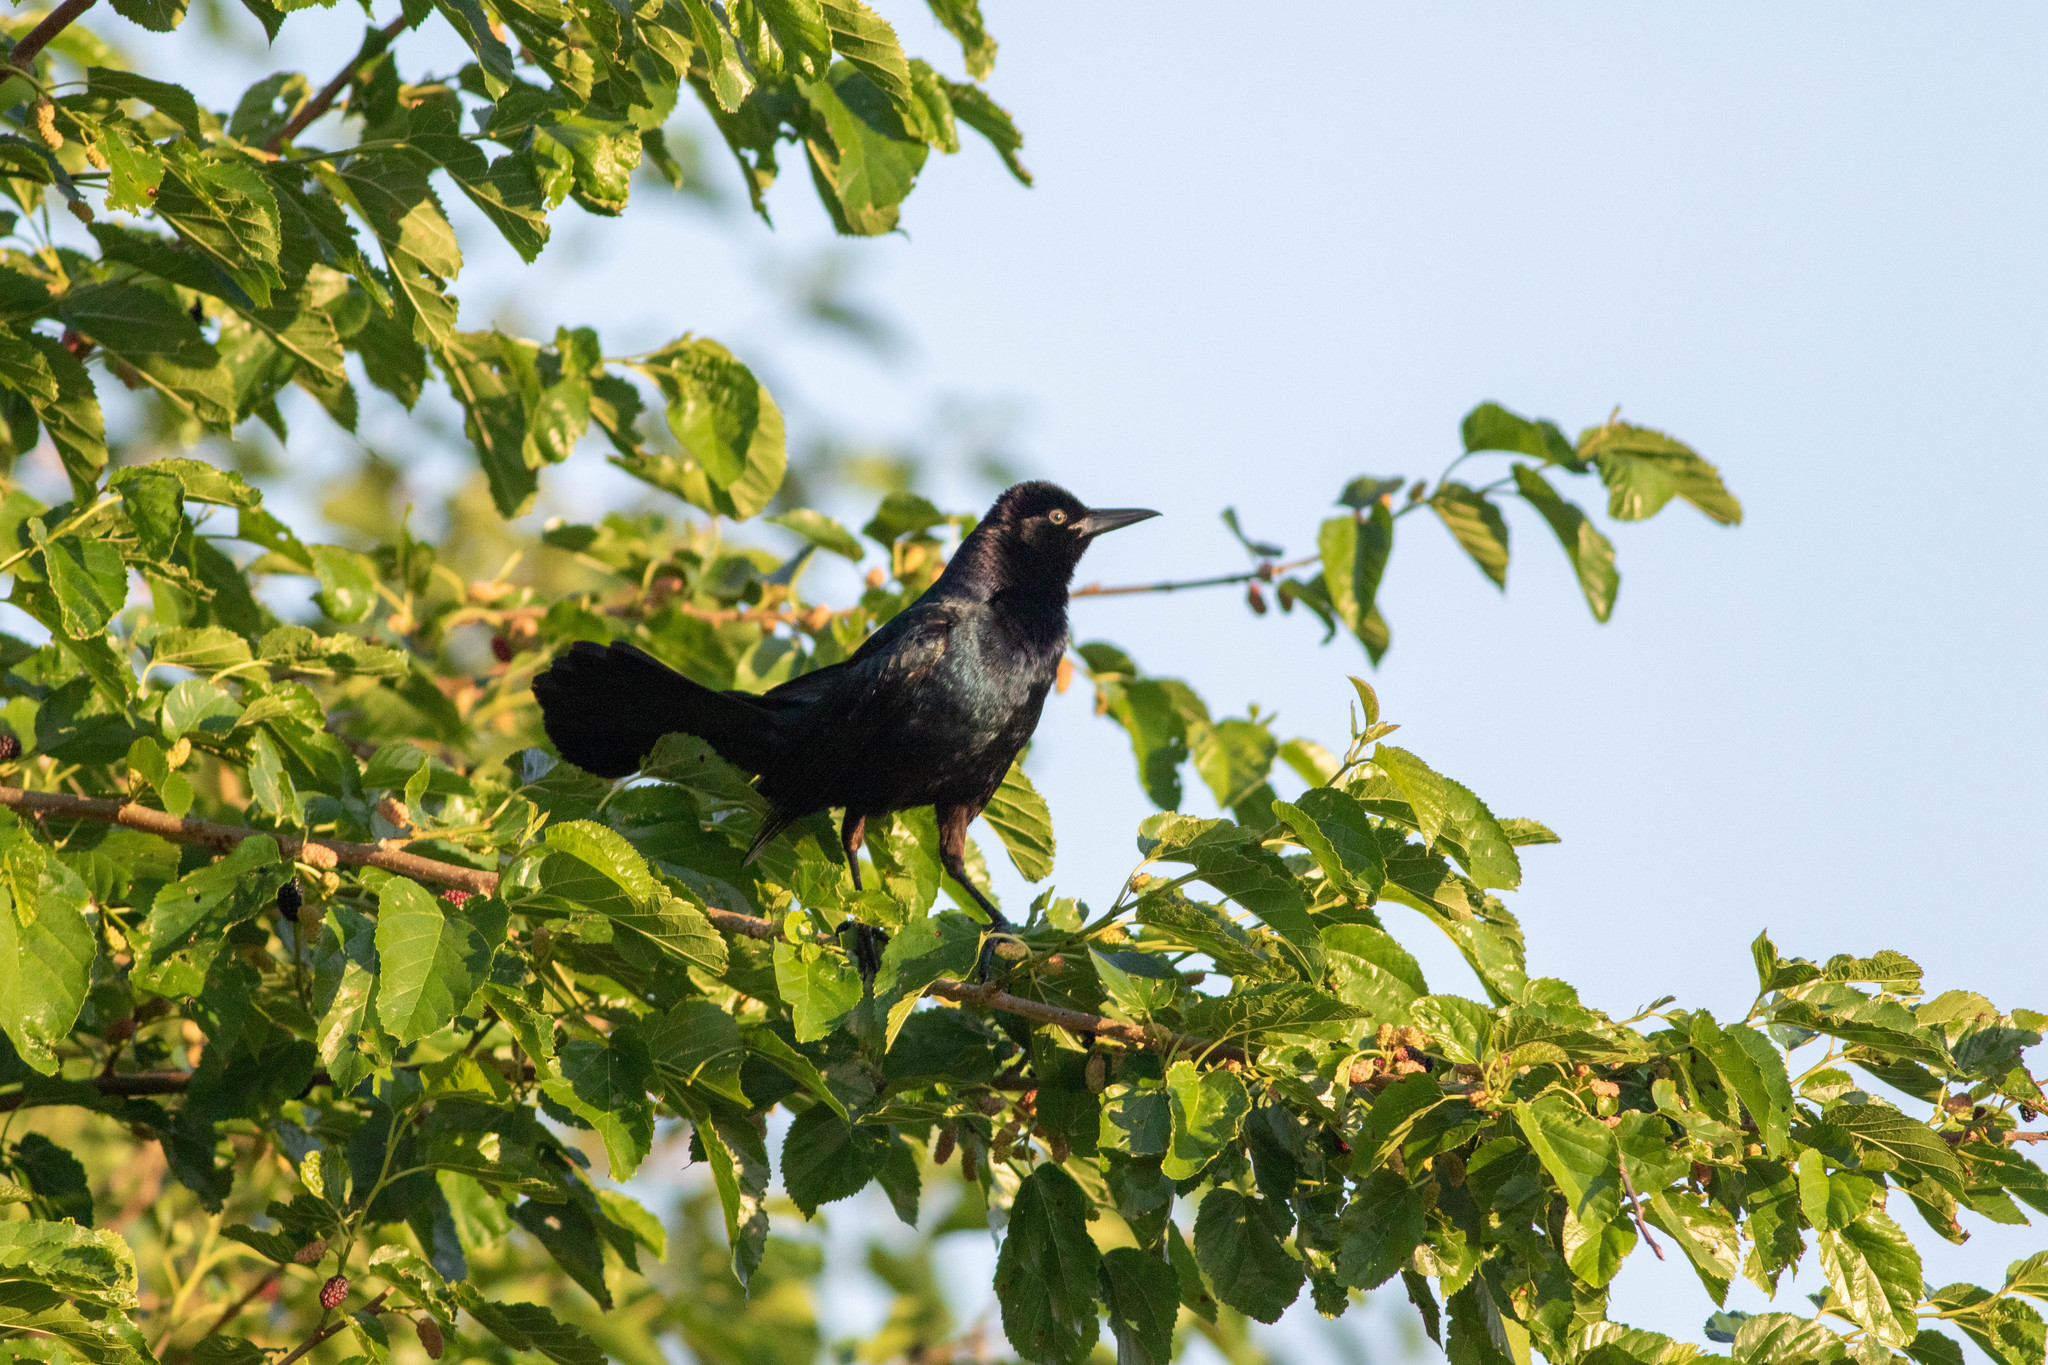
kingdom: Animalia
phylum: Chordata
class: Aves
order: Passeriformes
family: Icteridae
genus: Quiscalus
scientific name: Quiscalus major
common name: Boat-tailed grackle
